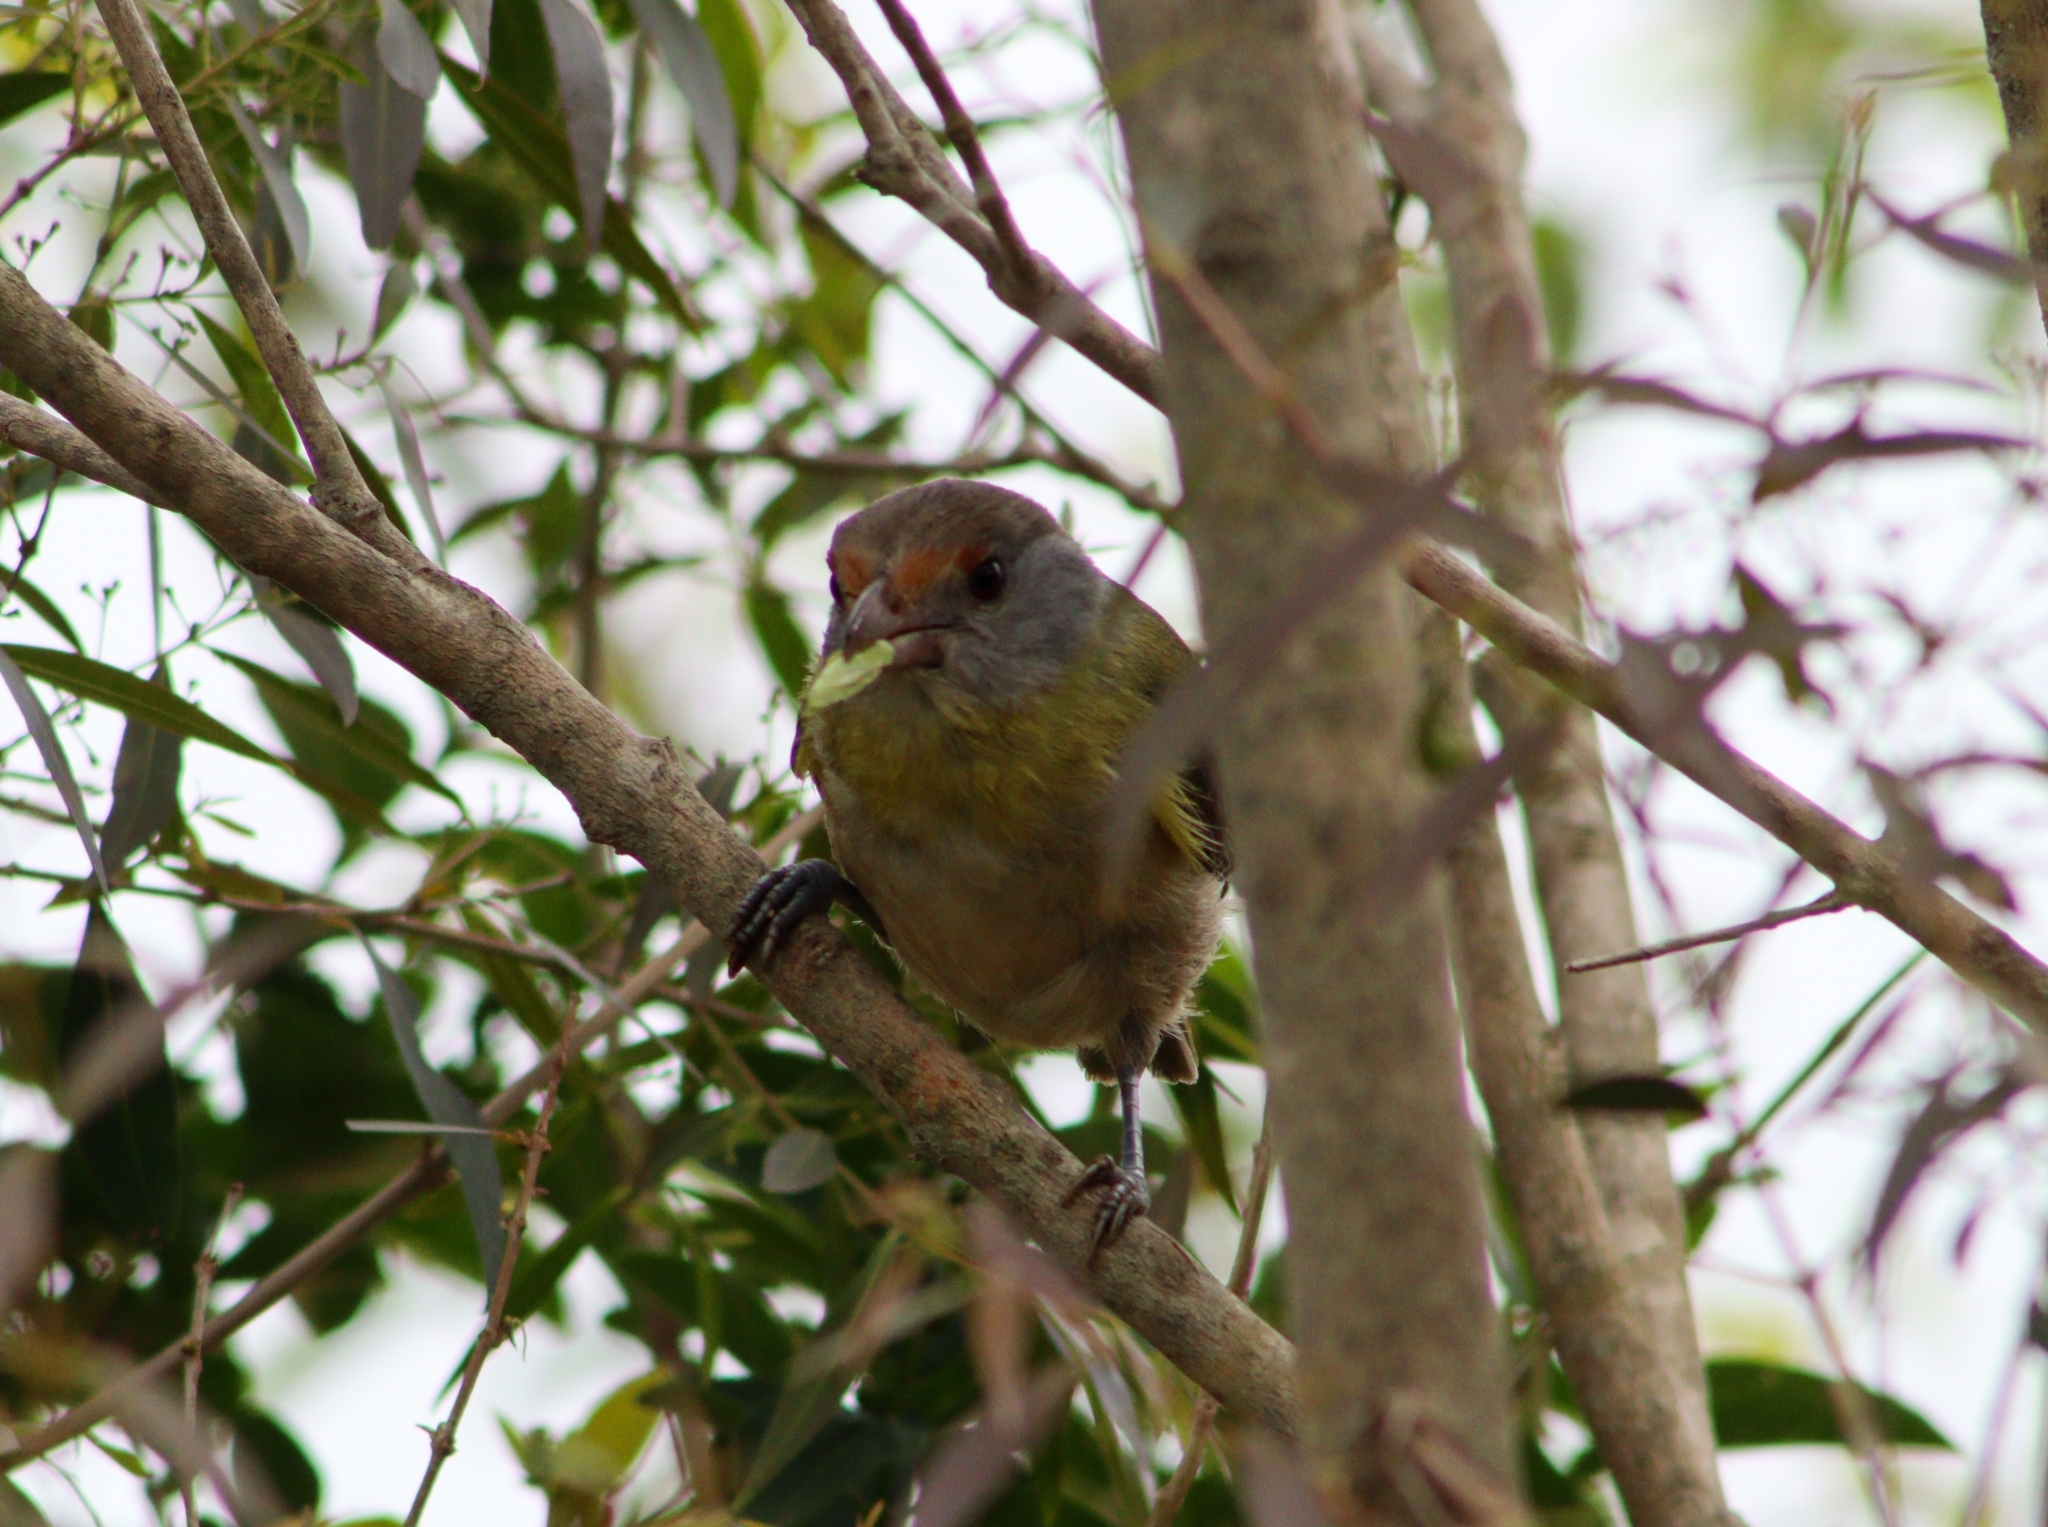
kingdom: Animalia
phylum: Chordata
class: Aves
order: Passeriformes
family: Vireonidae
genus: Cyclarhis
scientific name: Cyclarhis gujanensis
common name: Rufous-browed peppershrike
